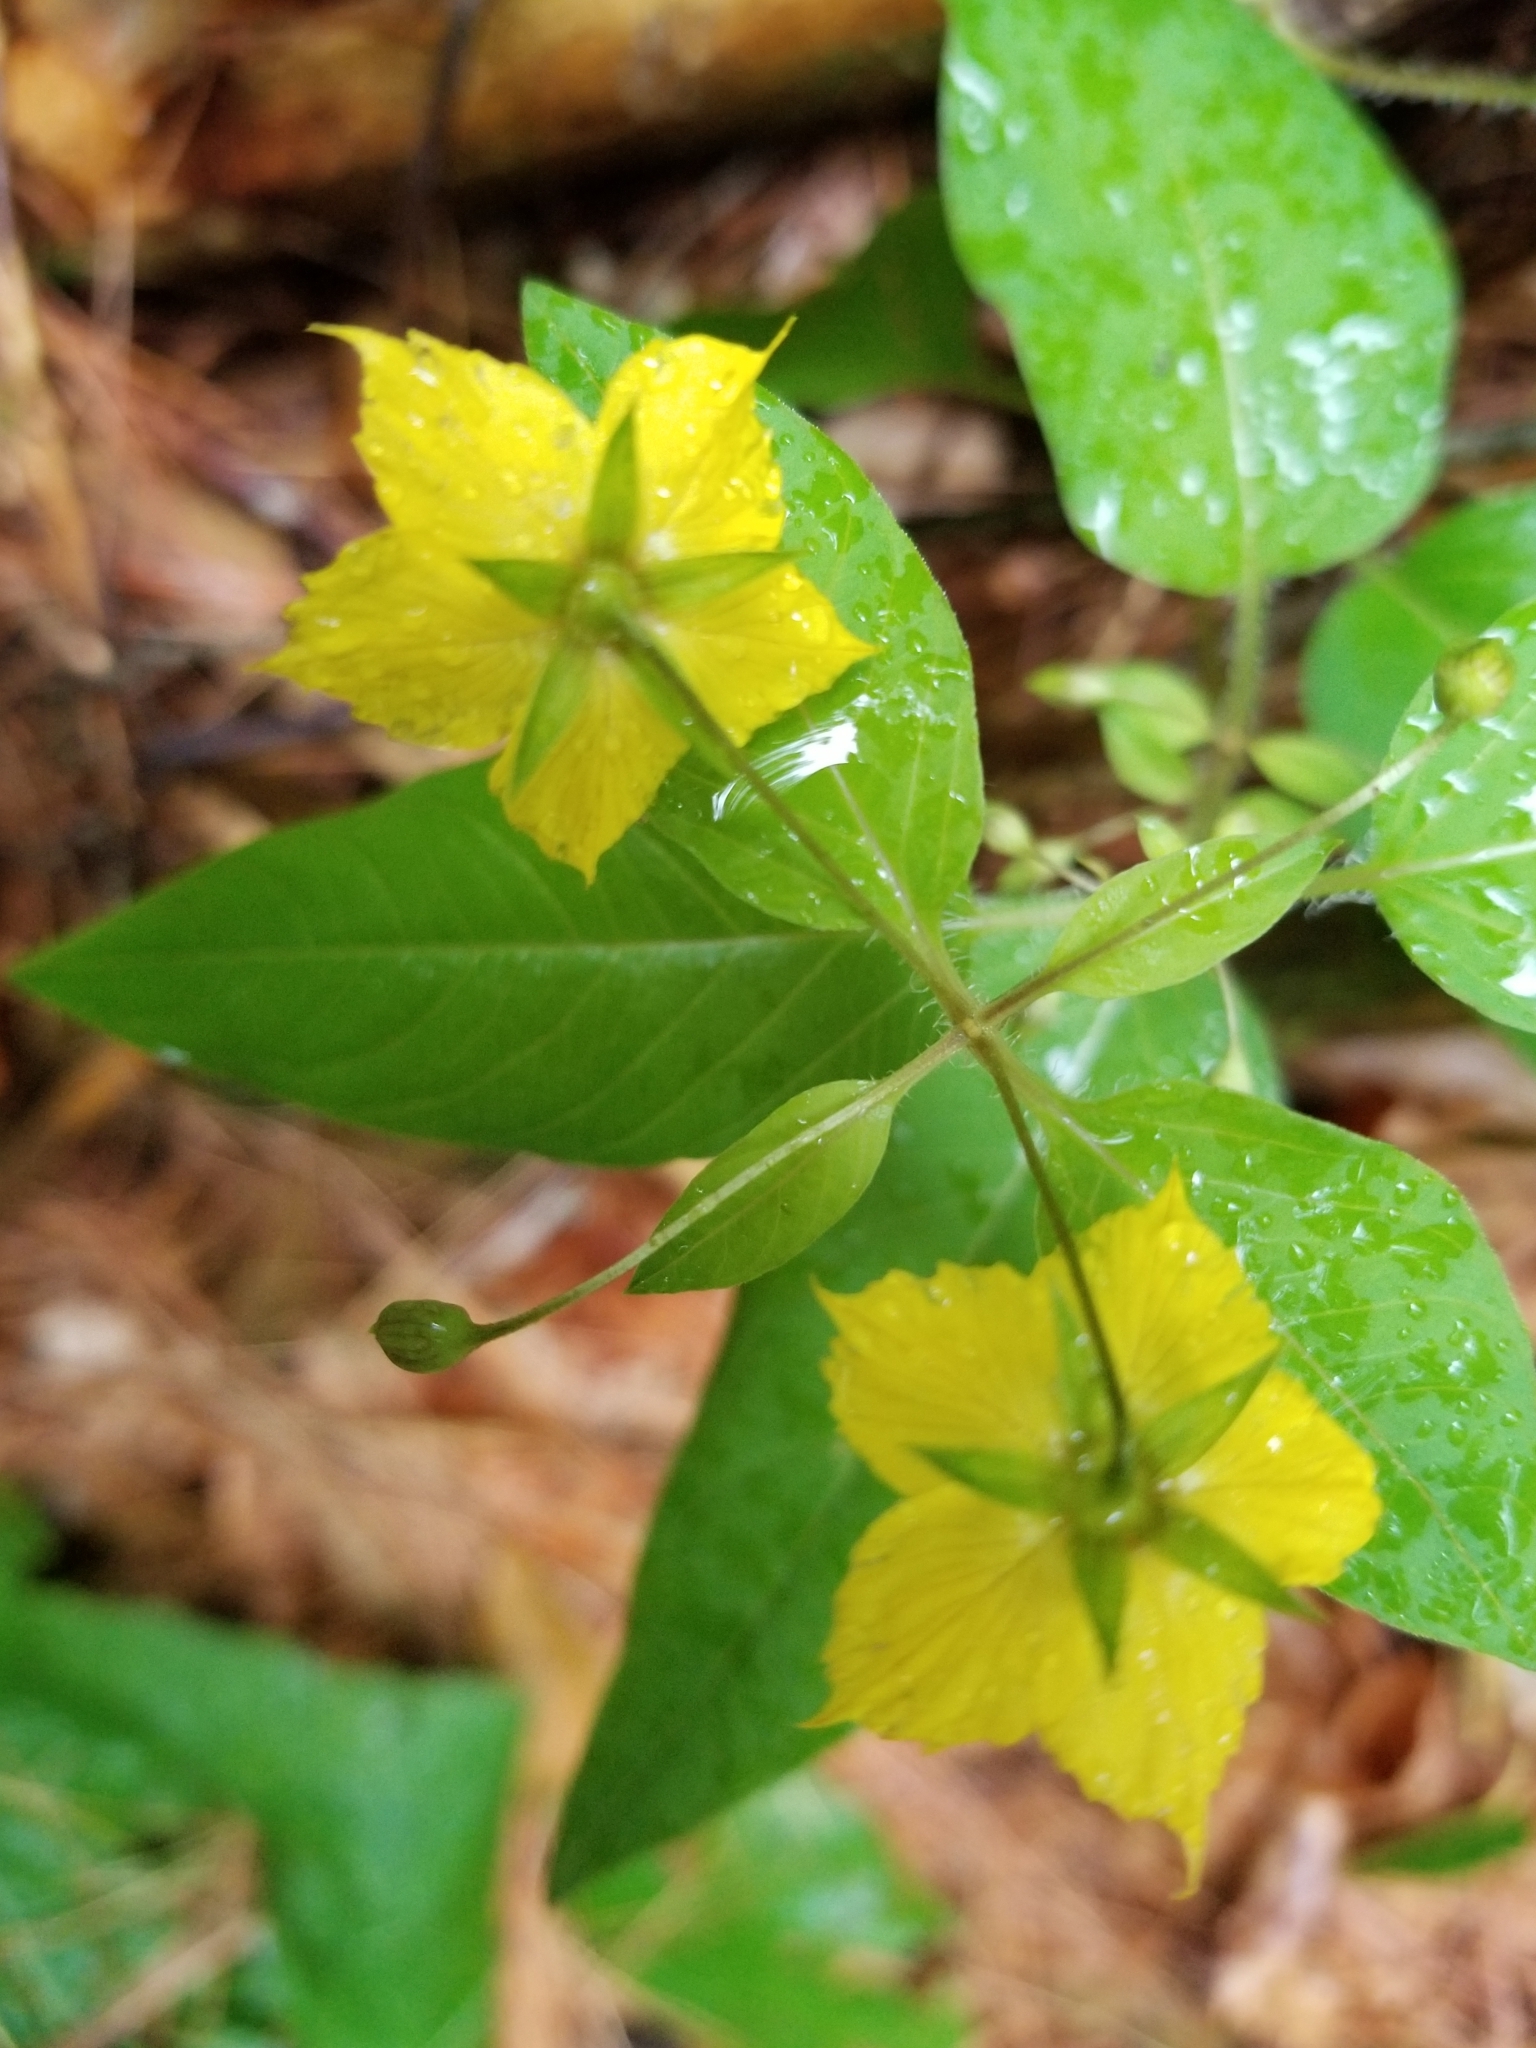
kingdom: Plantae
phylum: Tracheophyta
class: Magnoliopsida
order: Ericales
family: Primulaceae
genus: Lysimachia
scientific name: Lysimachia ciliata
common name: Fringed loosestrife
